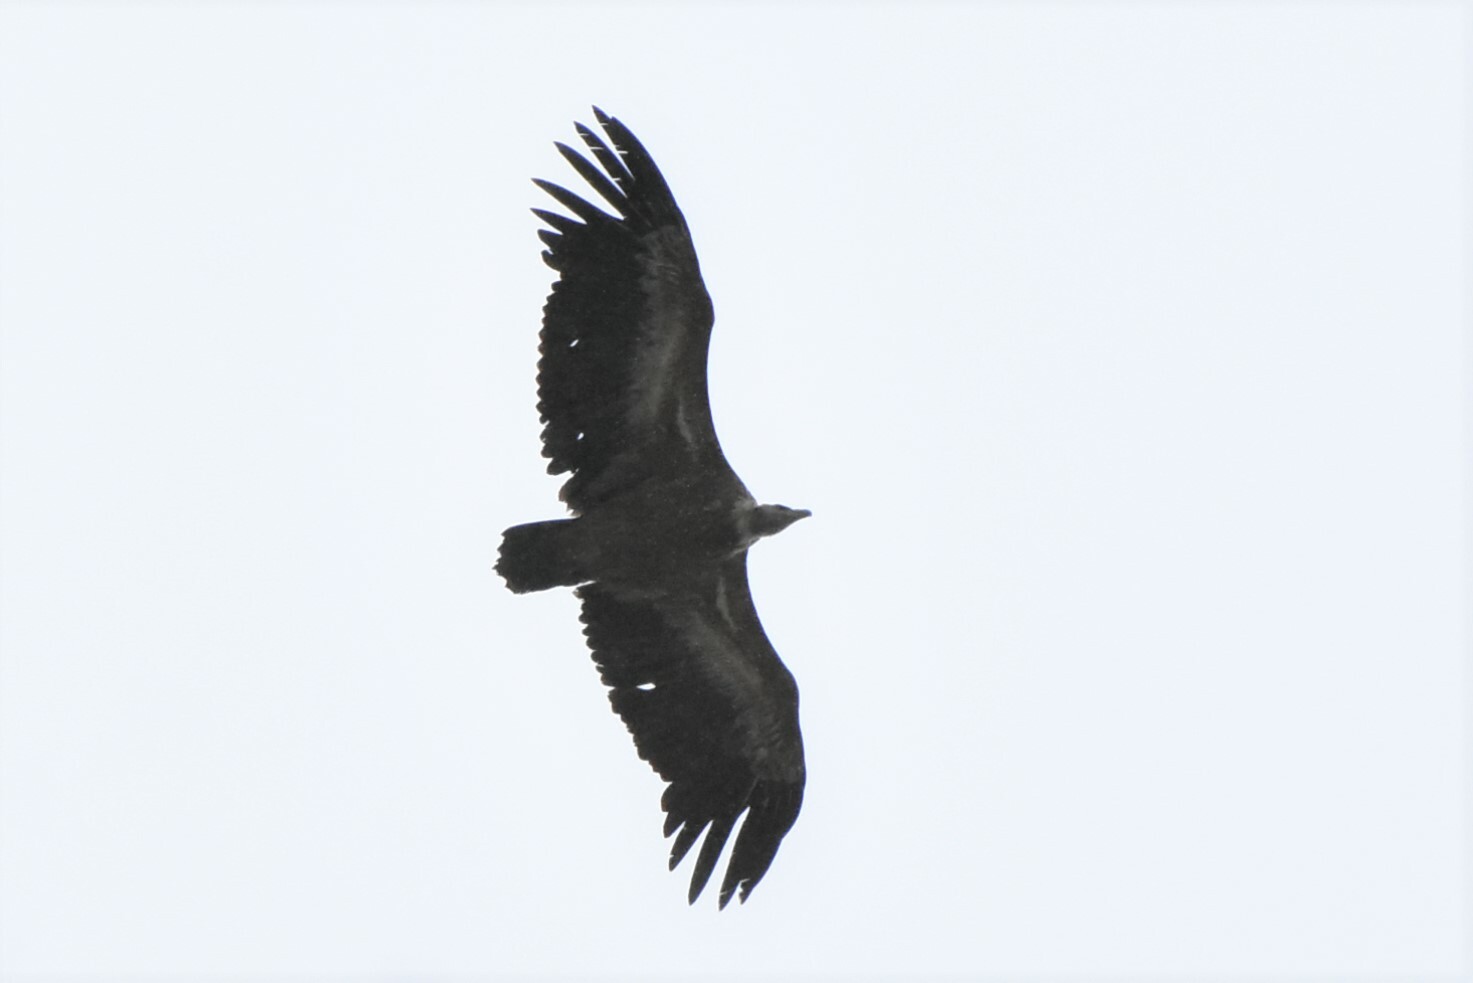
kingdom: Animalia
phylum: Chordata
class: Aves
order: Accipitriformes
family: Accipitridae
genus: Gyps
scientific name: Gyps fulvus
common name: Griffon vulture
